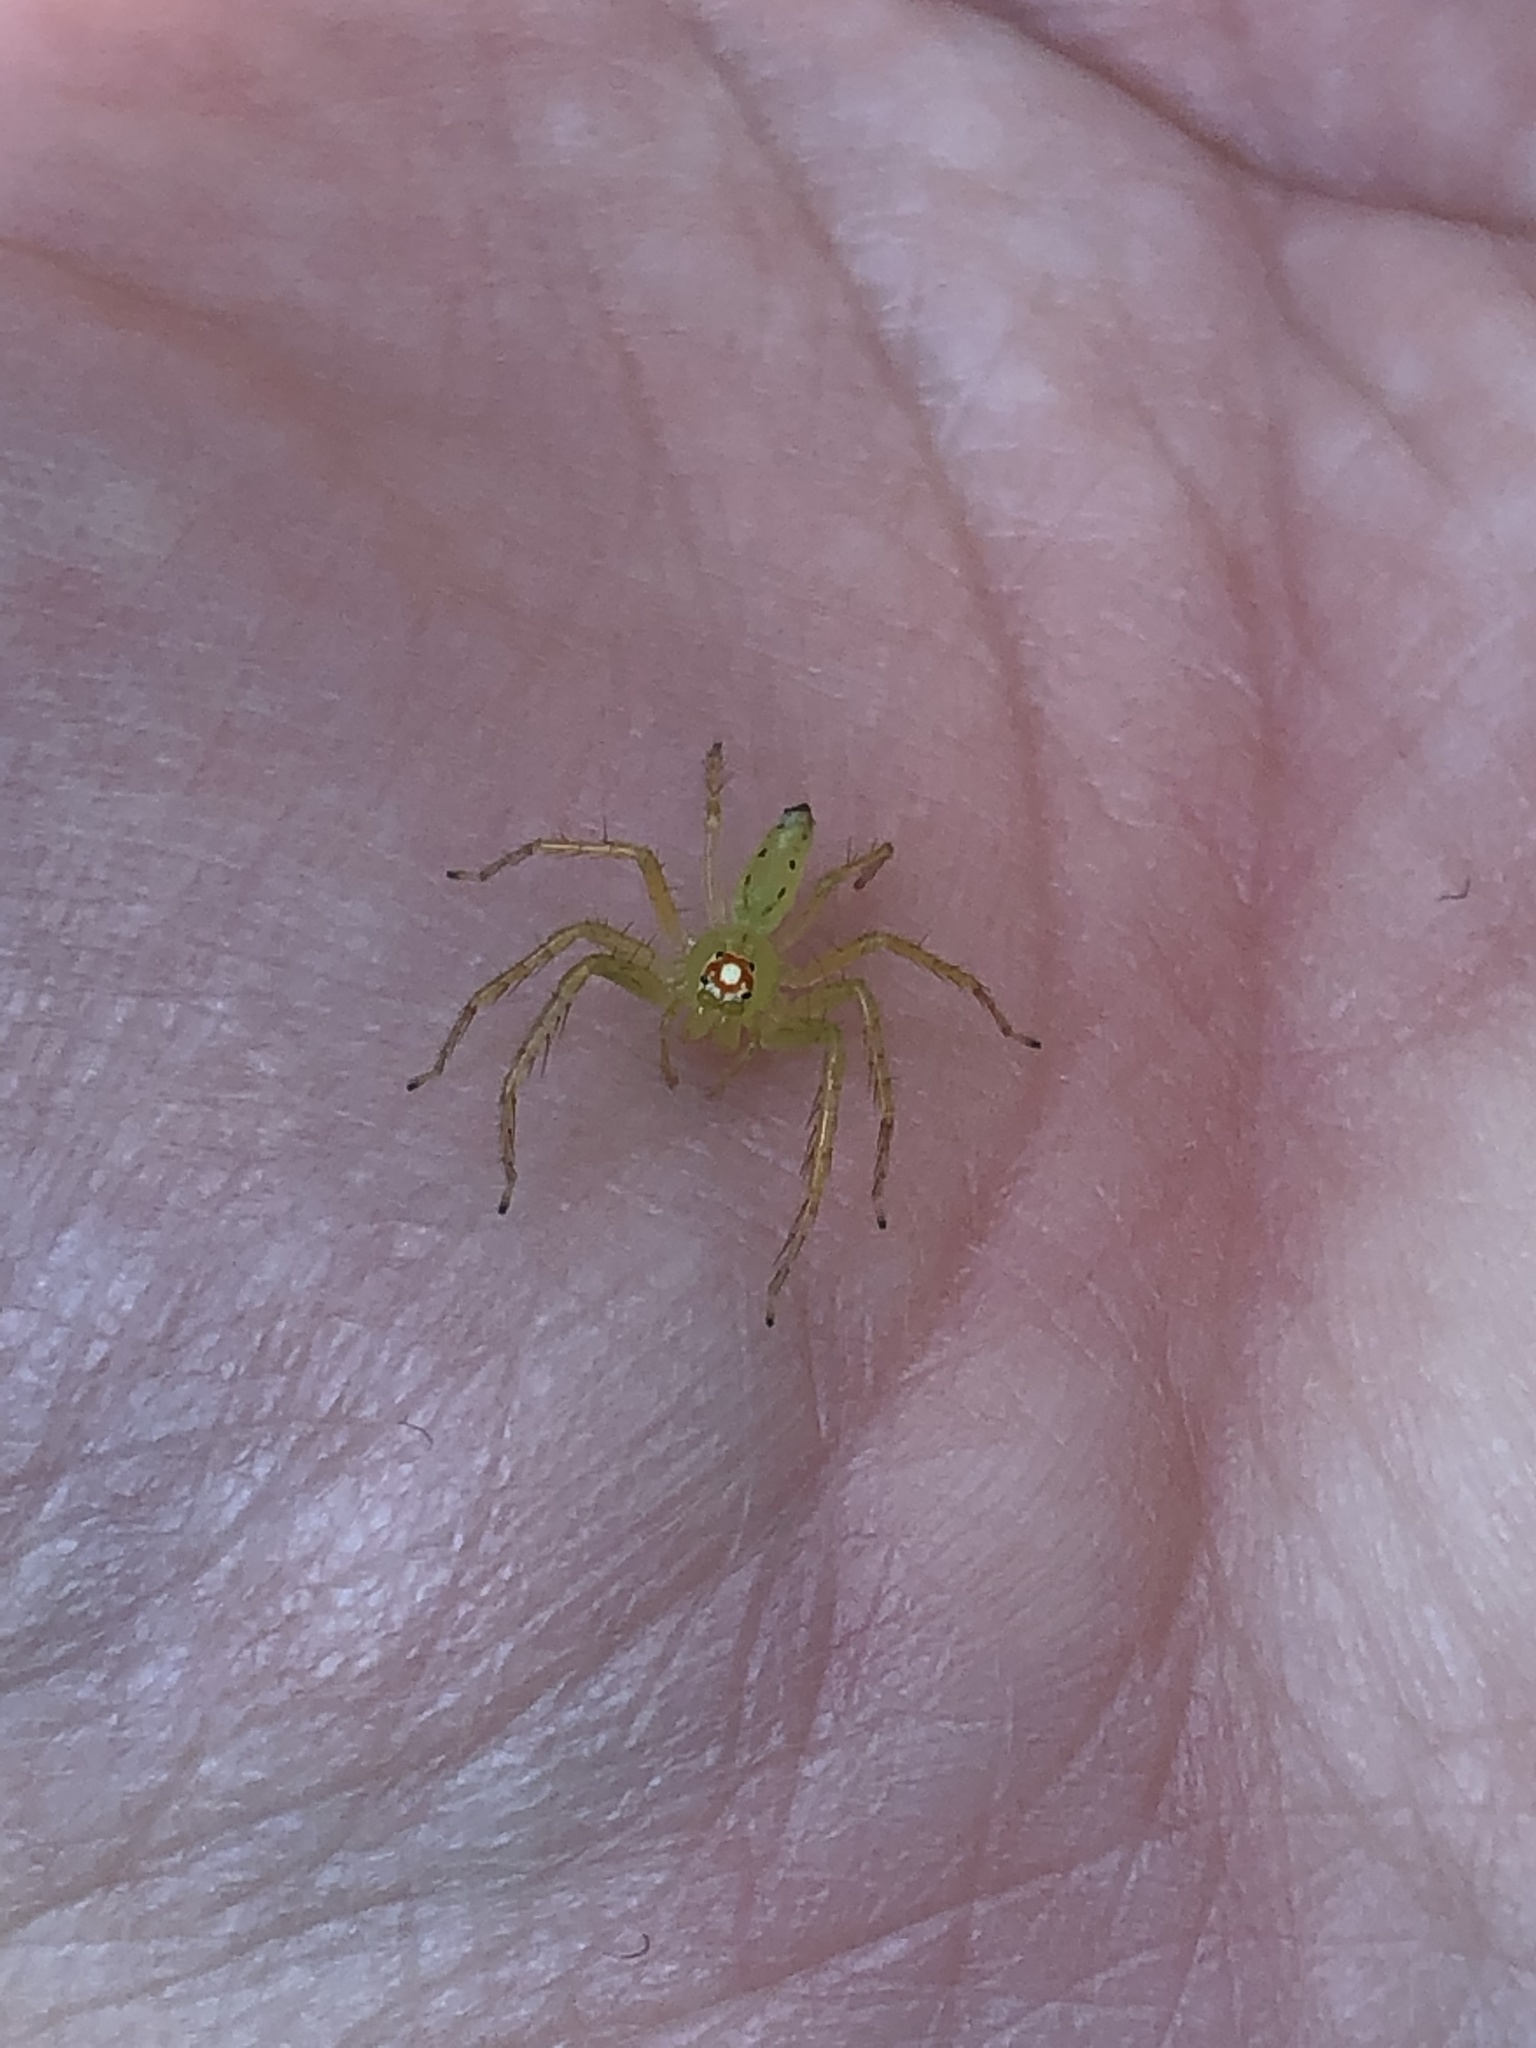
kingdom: Animalia
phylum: Arthropoda
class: Arachnida
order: Araneae
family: Salticidae
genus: Lyssomanes
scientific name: Lyssomanes viridis
